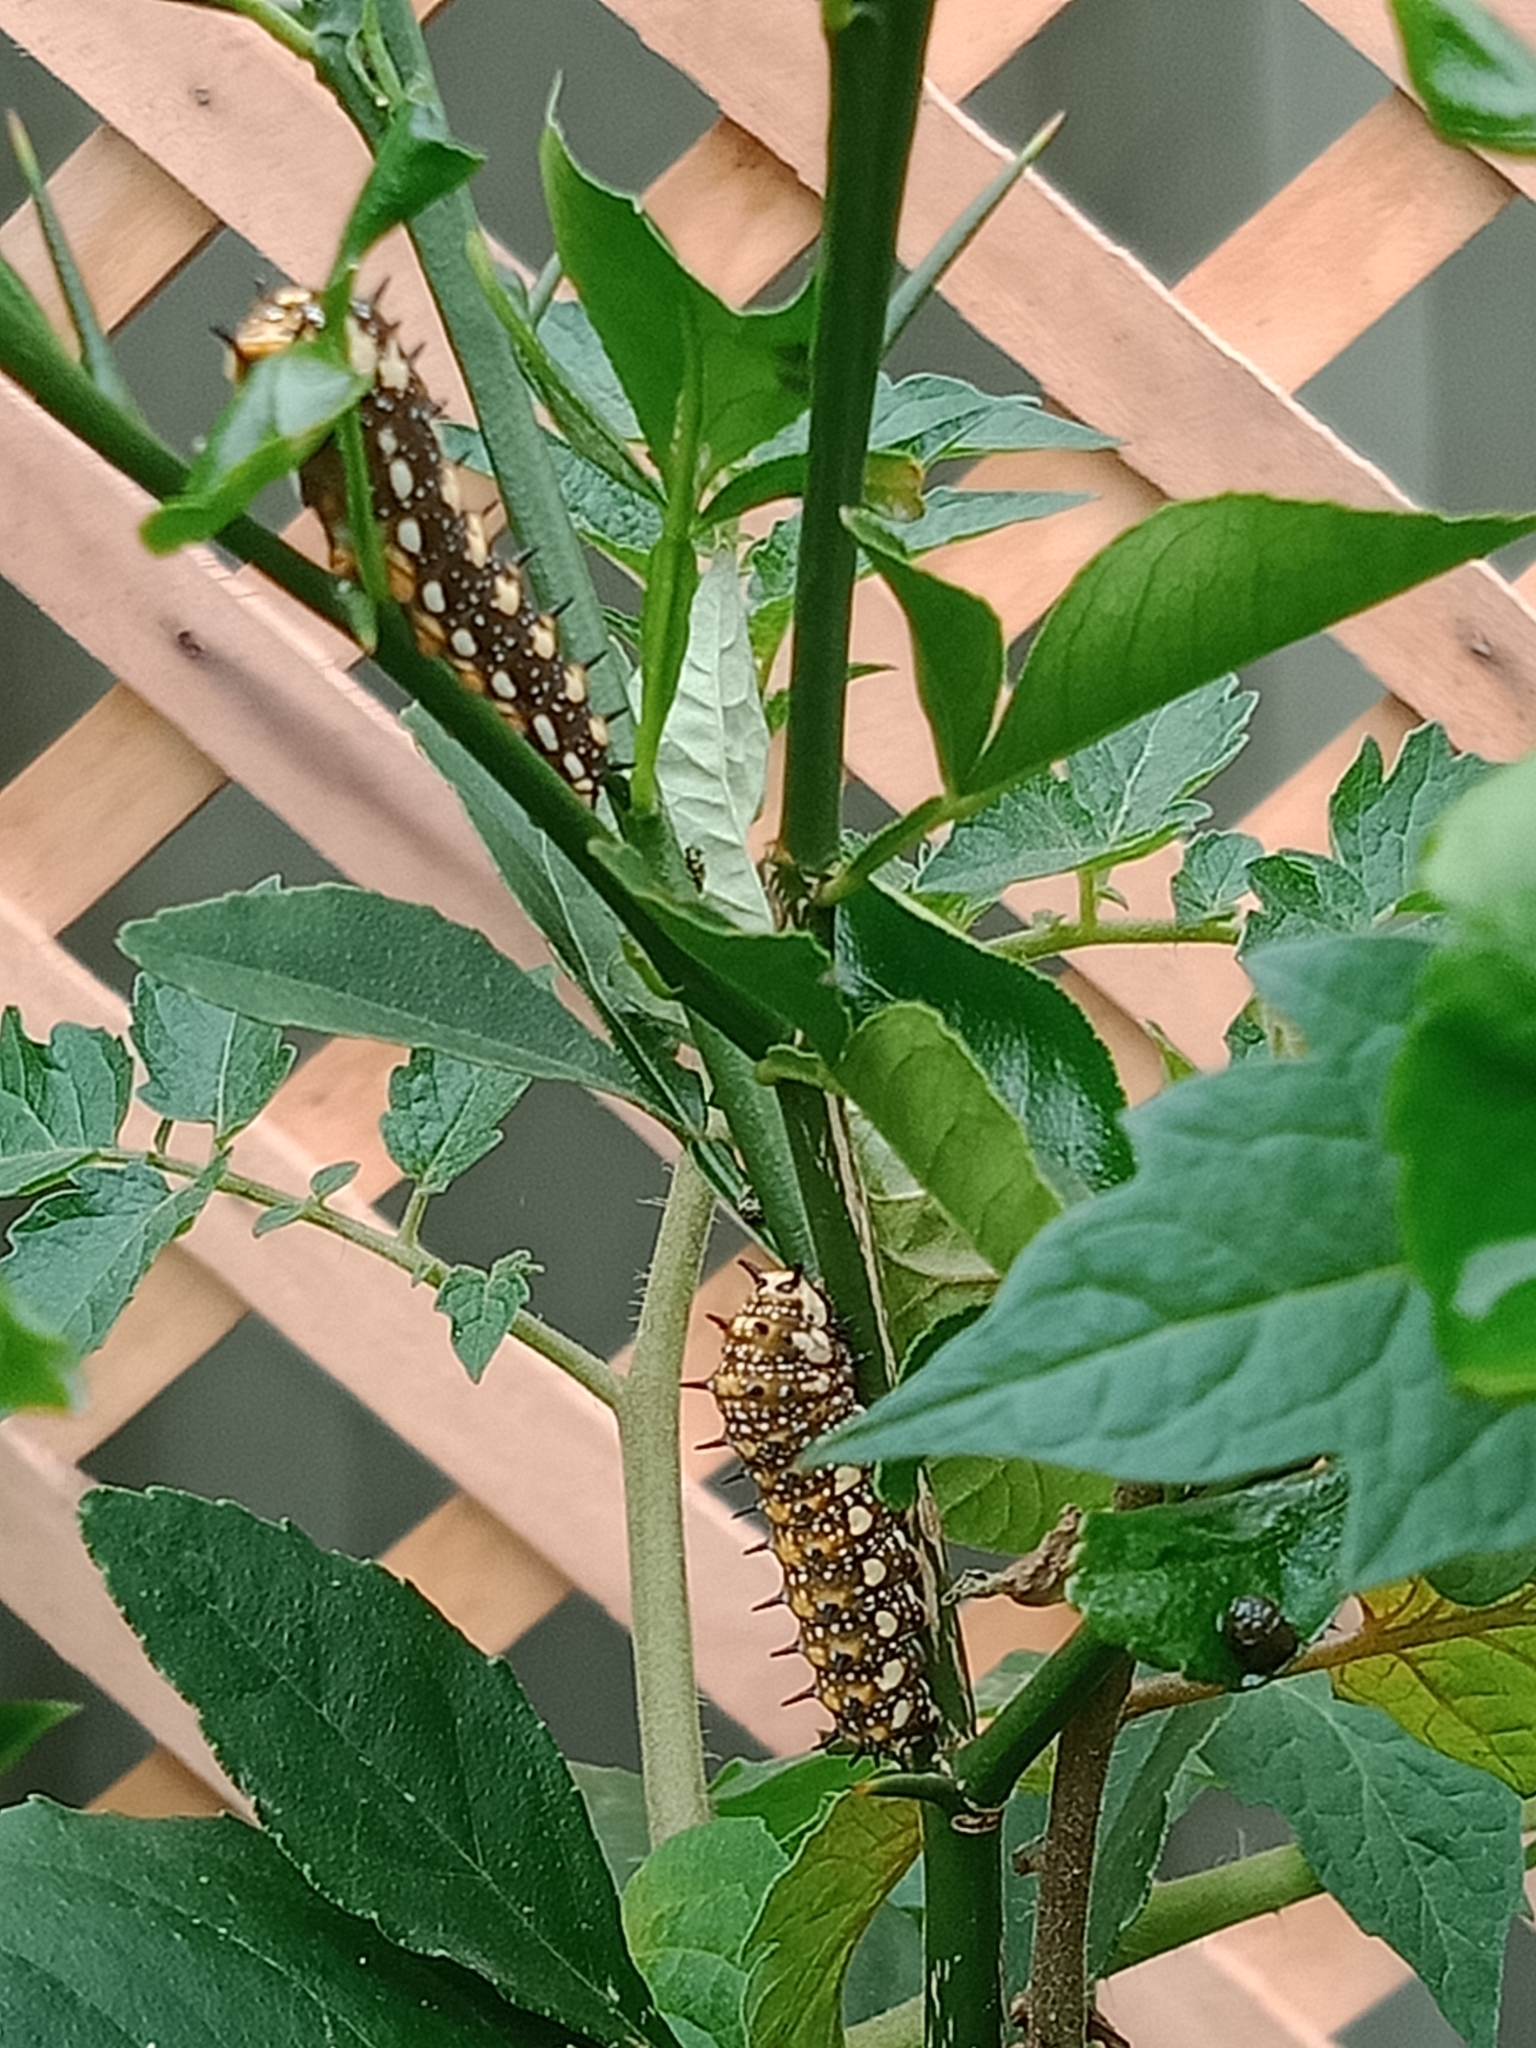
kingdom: Animalia
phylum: Arthropoda
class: Insecta
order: Lepidoptera
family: Papilionidae
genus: Papilio
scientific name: Papilio anactus
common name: Dingy swallowtail
